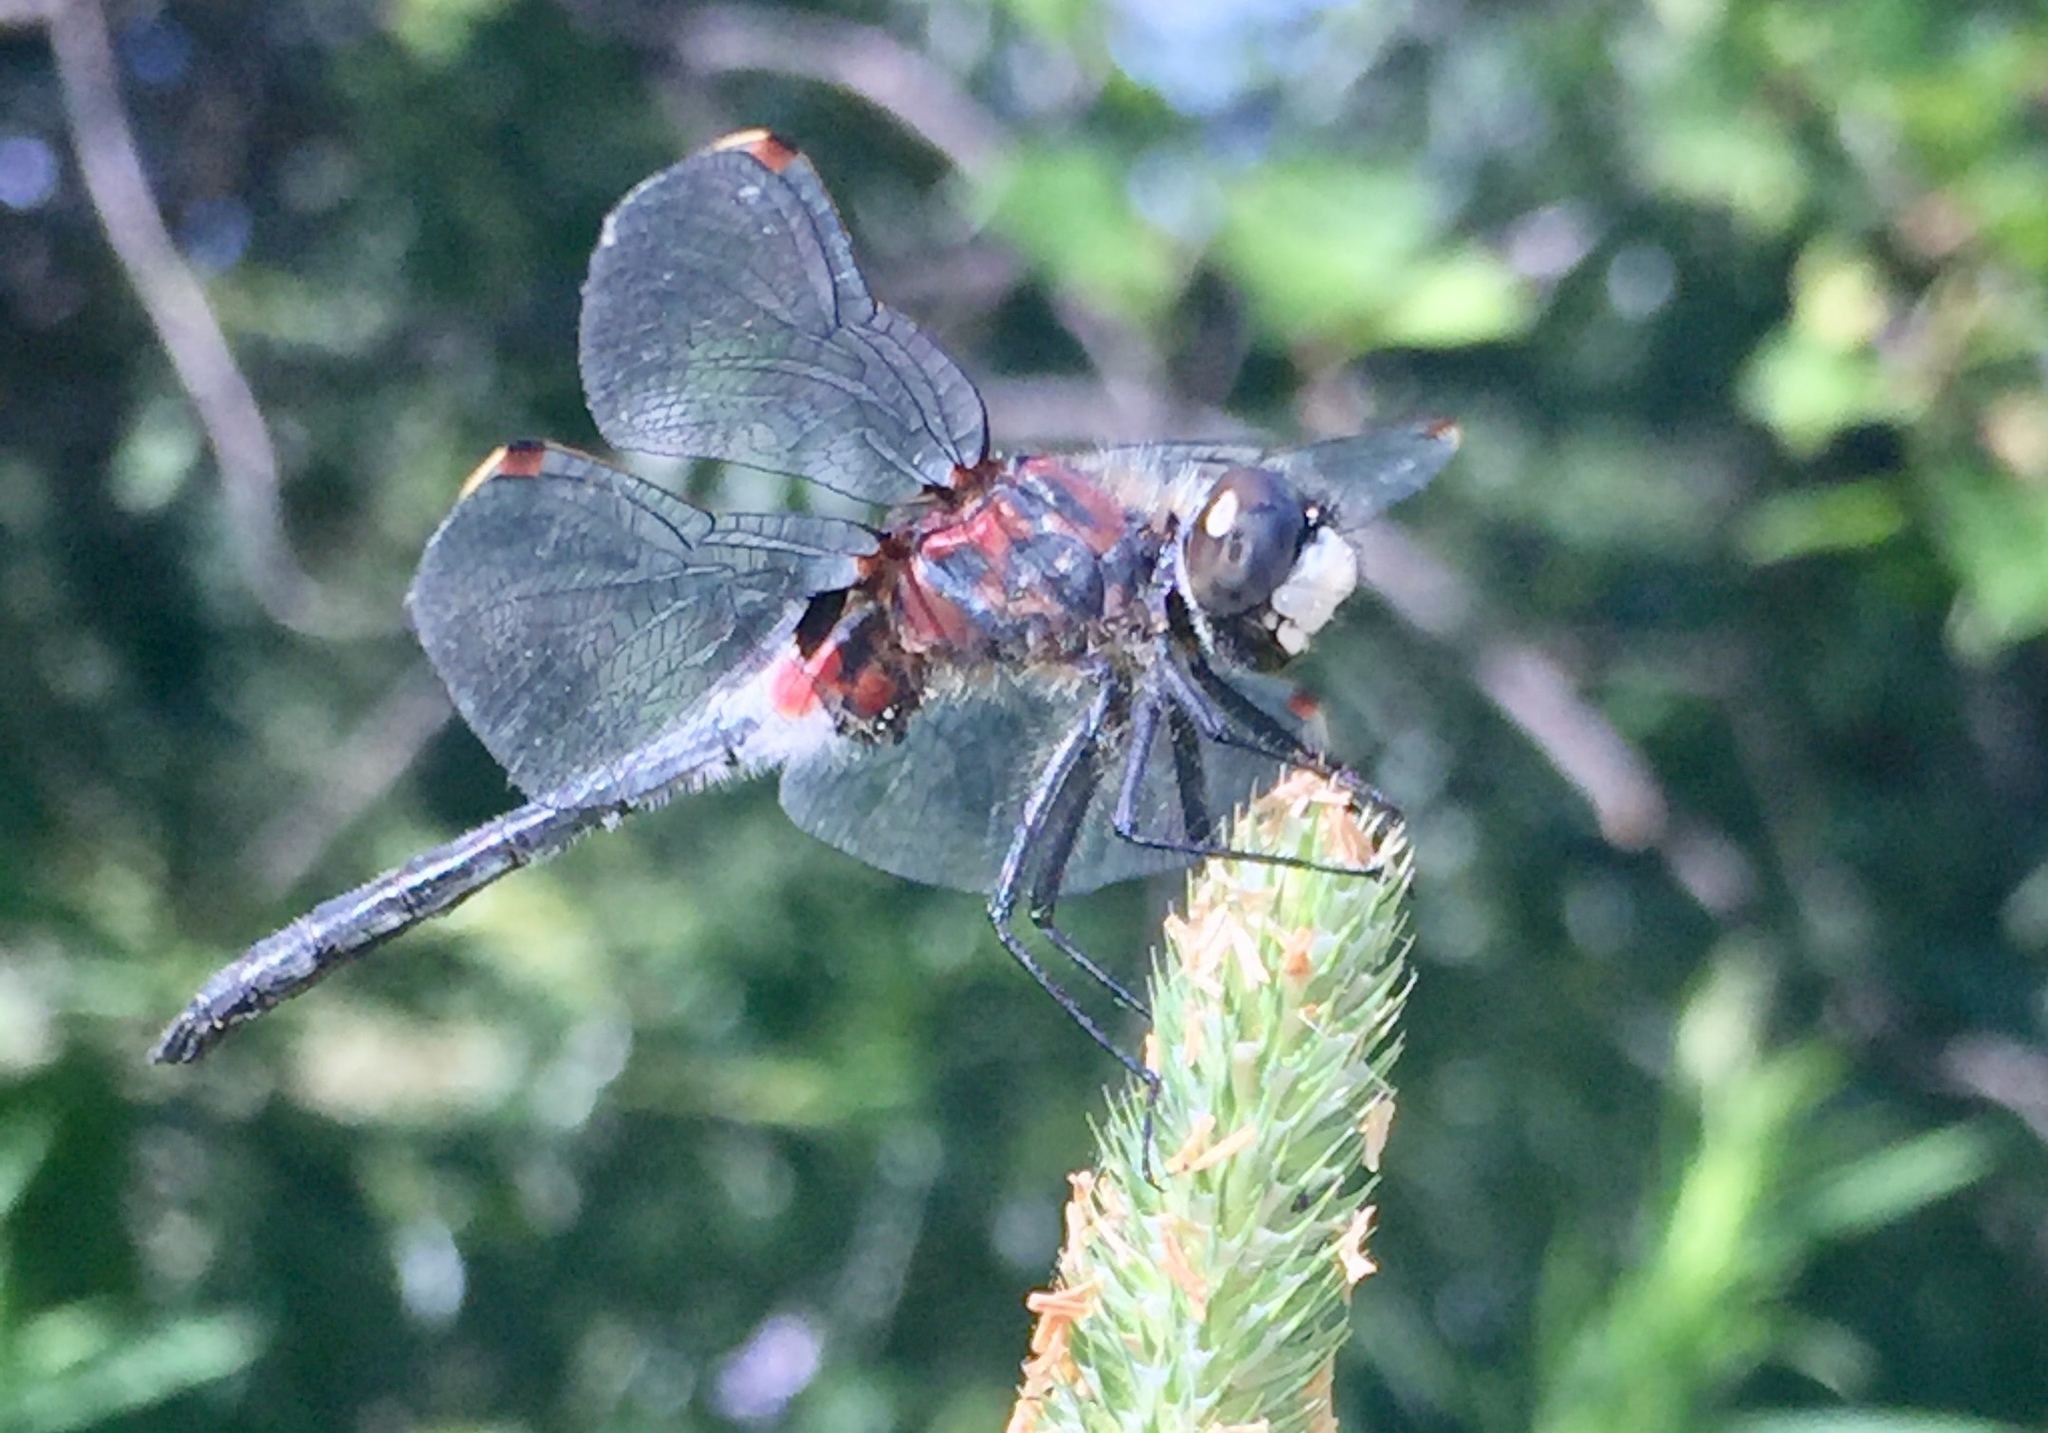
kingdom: Animalia
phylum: Arthropoda
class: Insecta
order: Odonata
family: Libellulidae
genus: Leucorrhinia
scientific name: Leucorrhinia glacialis
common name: Crimson-ringed whiteface
